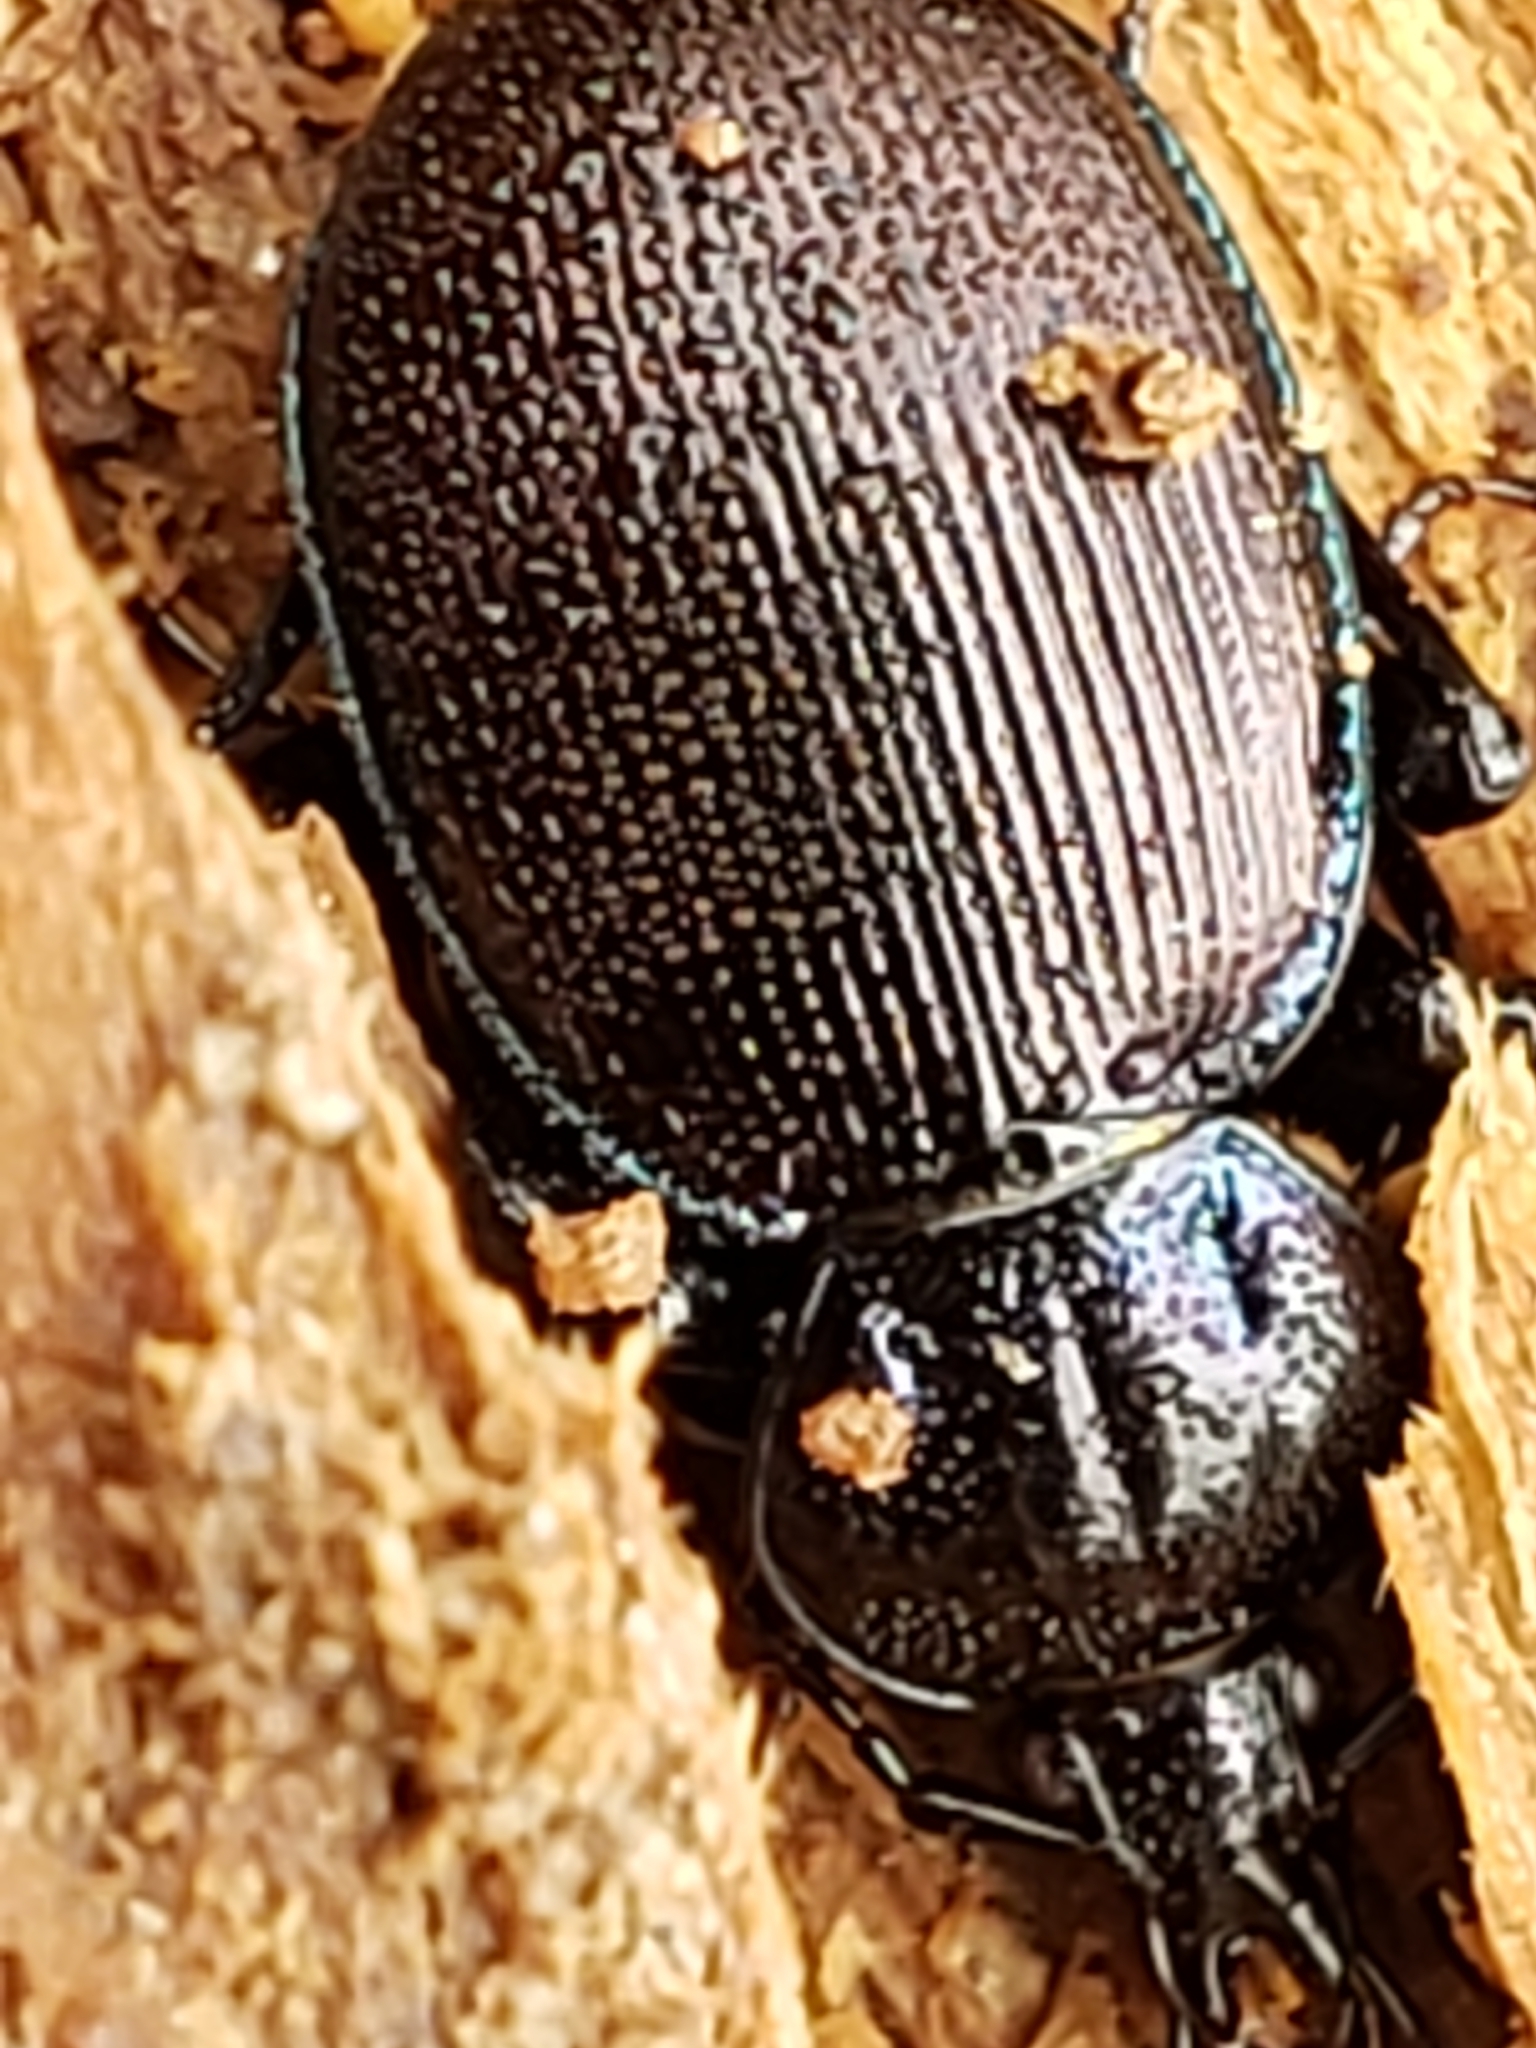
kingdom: Animalia
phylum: Arthropoda
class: Insecta
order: Coleoptera
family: Carabidae
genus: Sphaeroderus
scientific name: Sphaeroderus stenostomus
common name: Small snail-eating ground beetle
